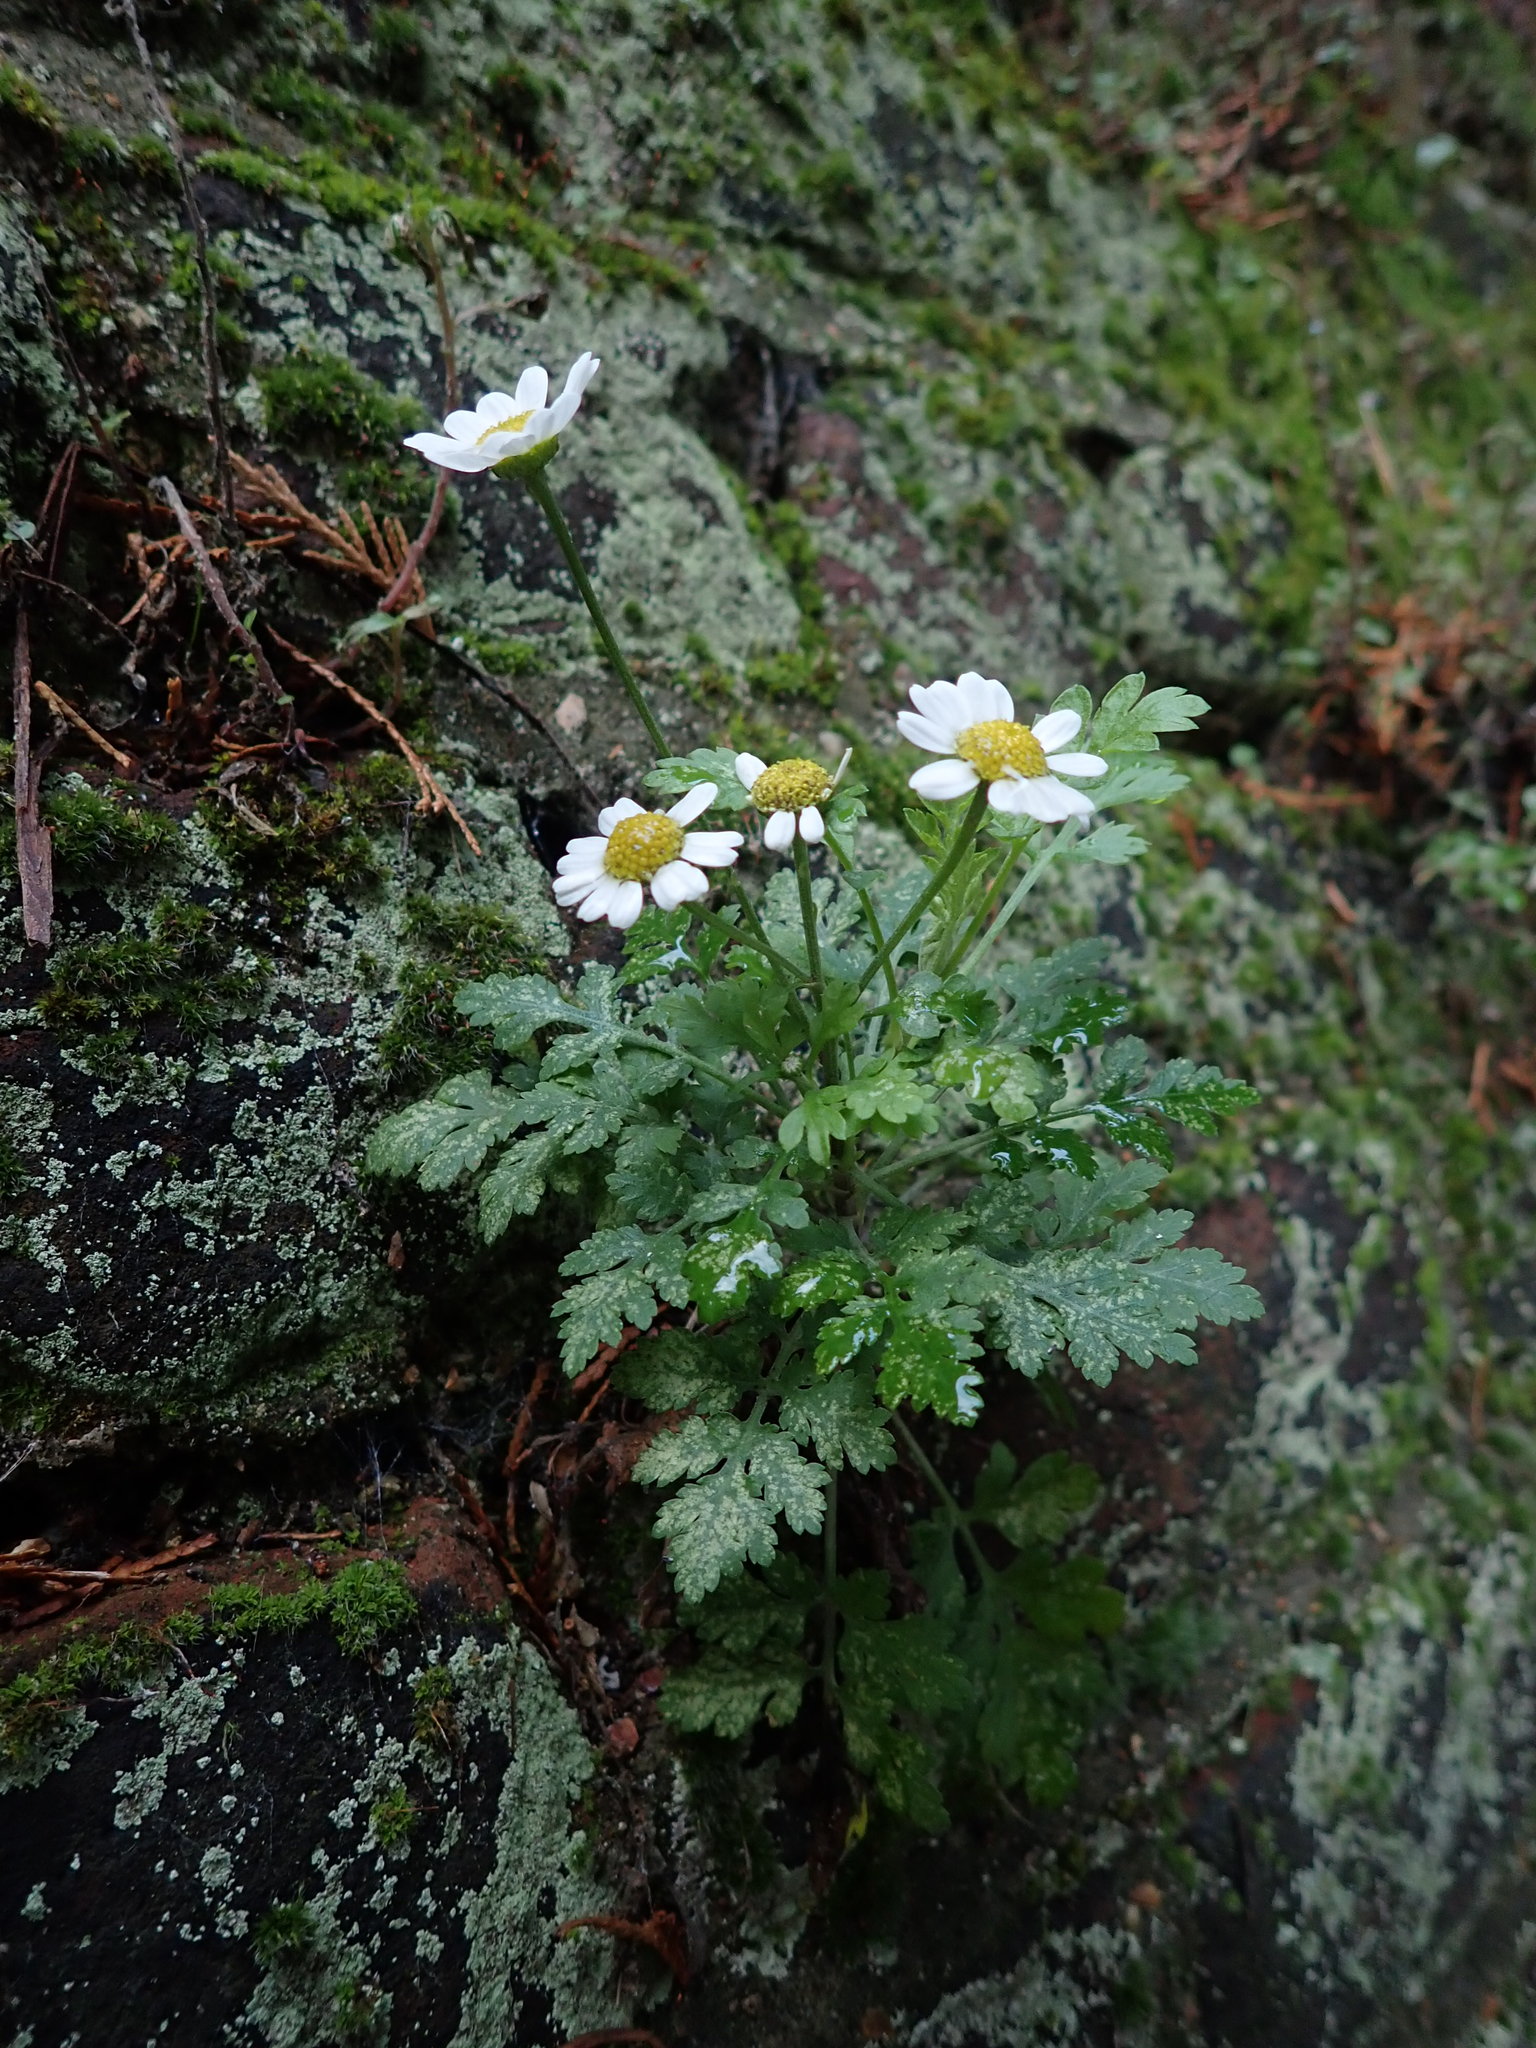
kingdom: Plantae
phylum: Tracheophyta
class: Magnoliopsida
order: Asterales
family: Asteraceae
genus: Tanacetum
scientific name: Tanacetum parthenium
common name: Feverfew
